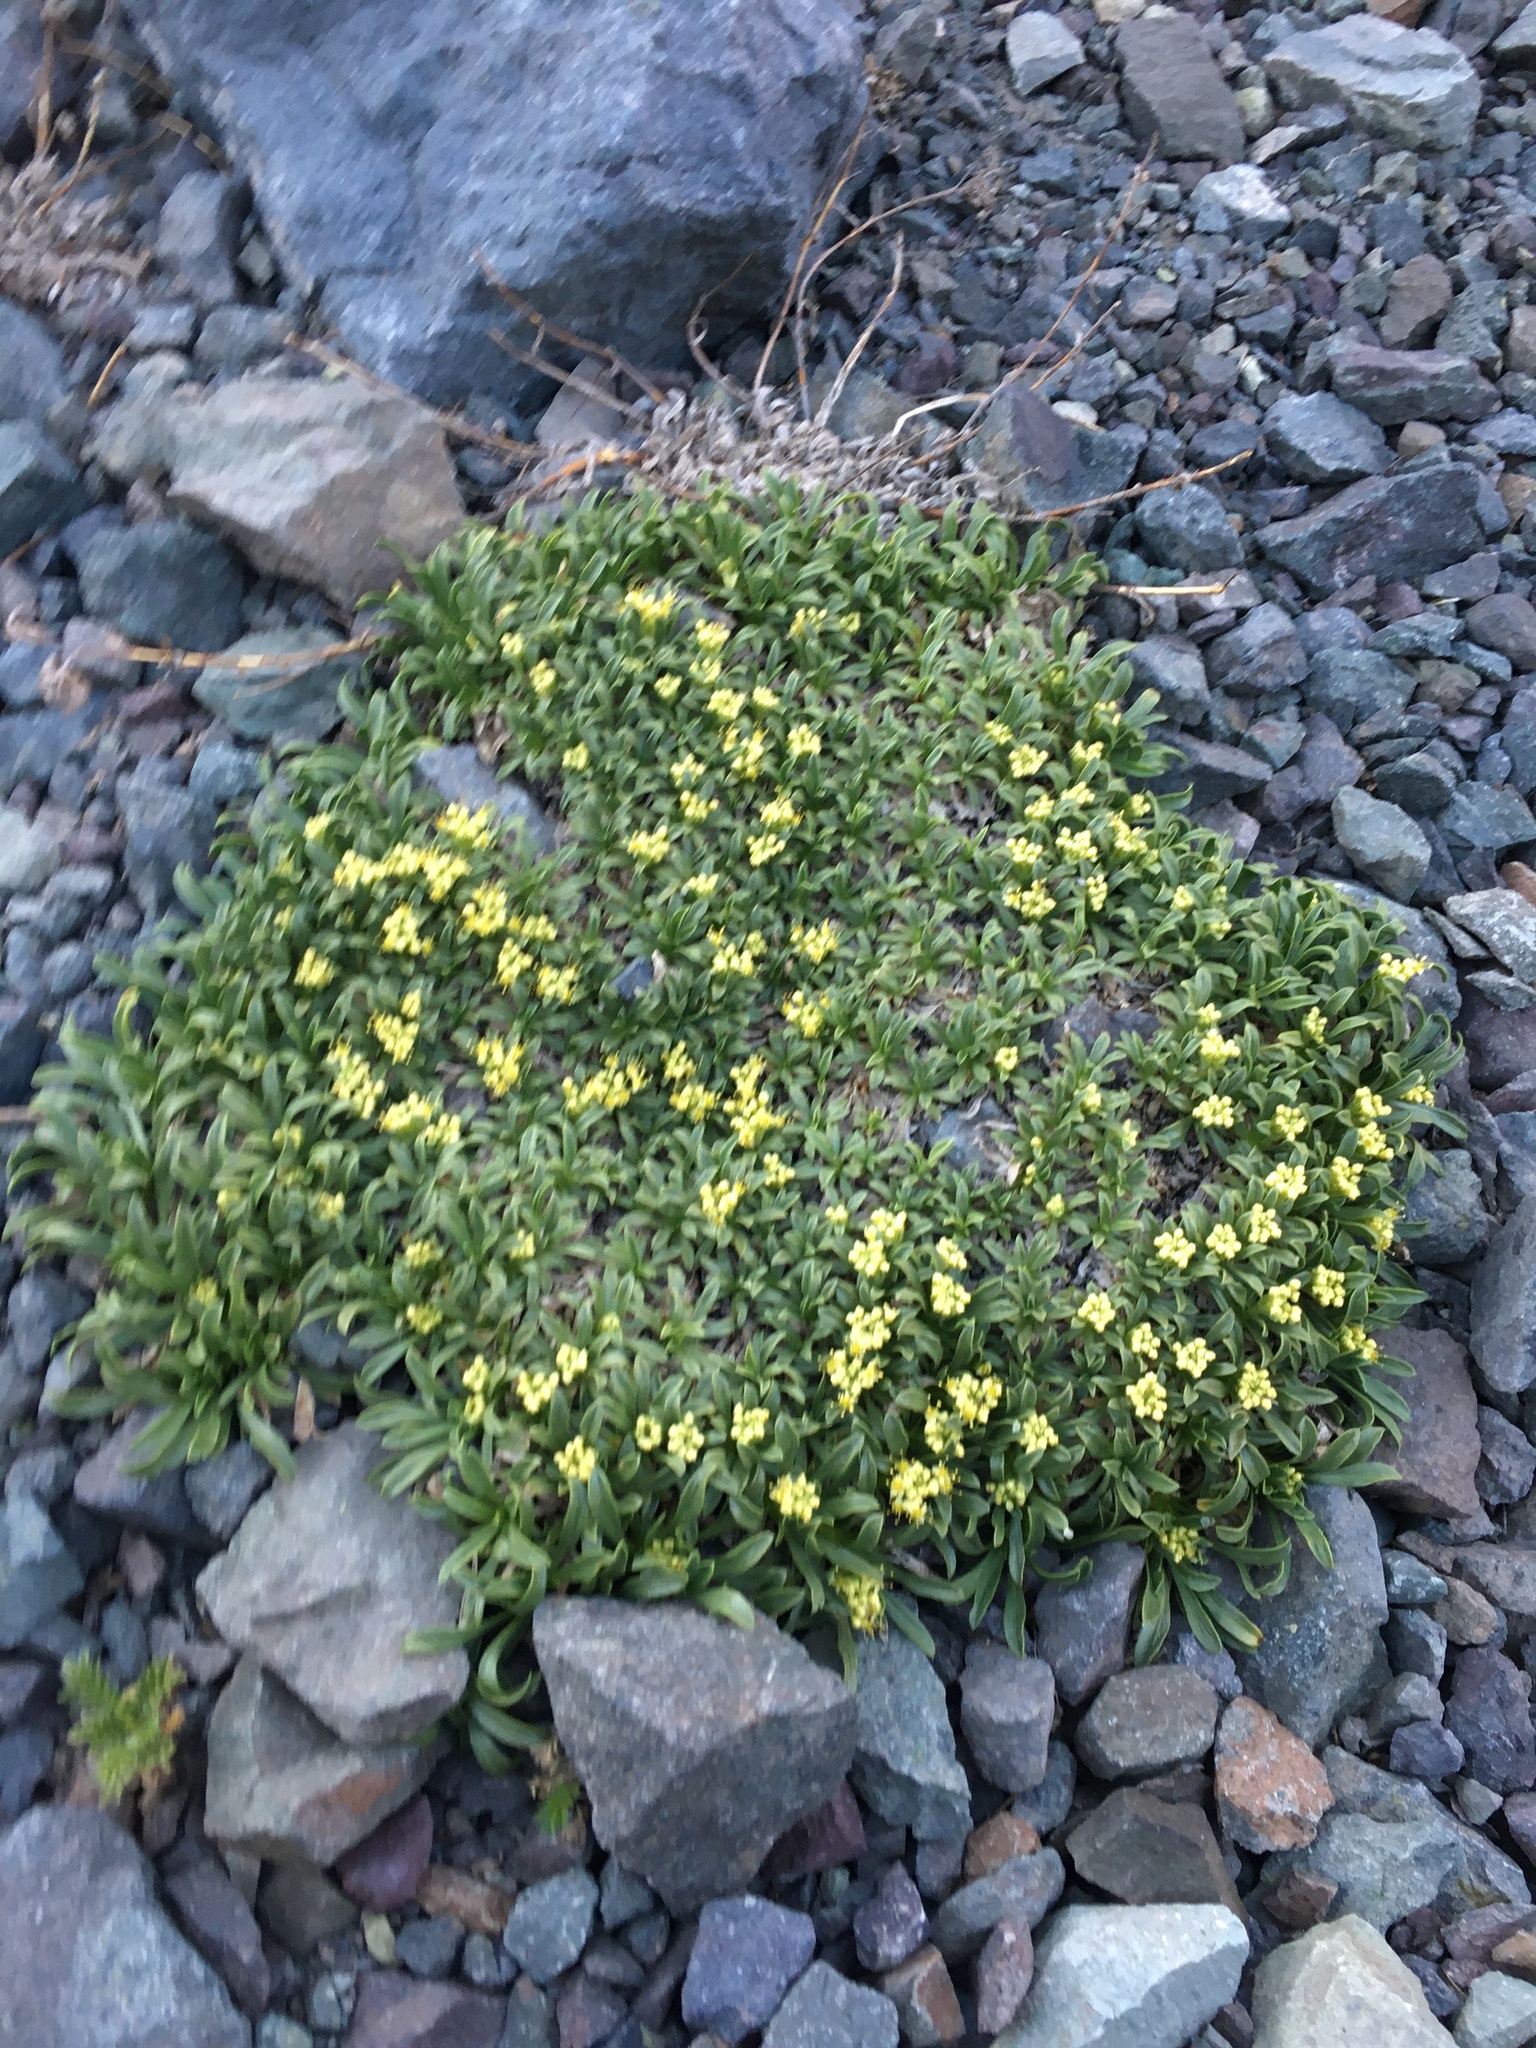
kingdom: Plantae
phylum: Tracheophyta
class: Magnoliopsida
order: Apiales
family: Apiaceae
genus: Azorella
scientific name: Azorella ruizii
